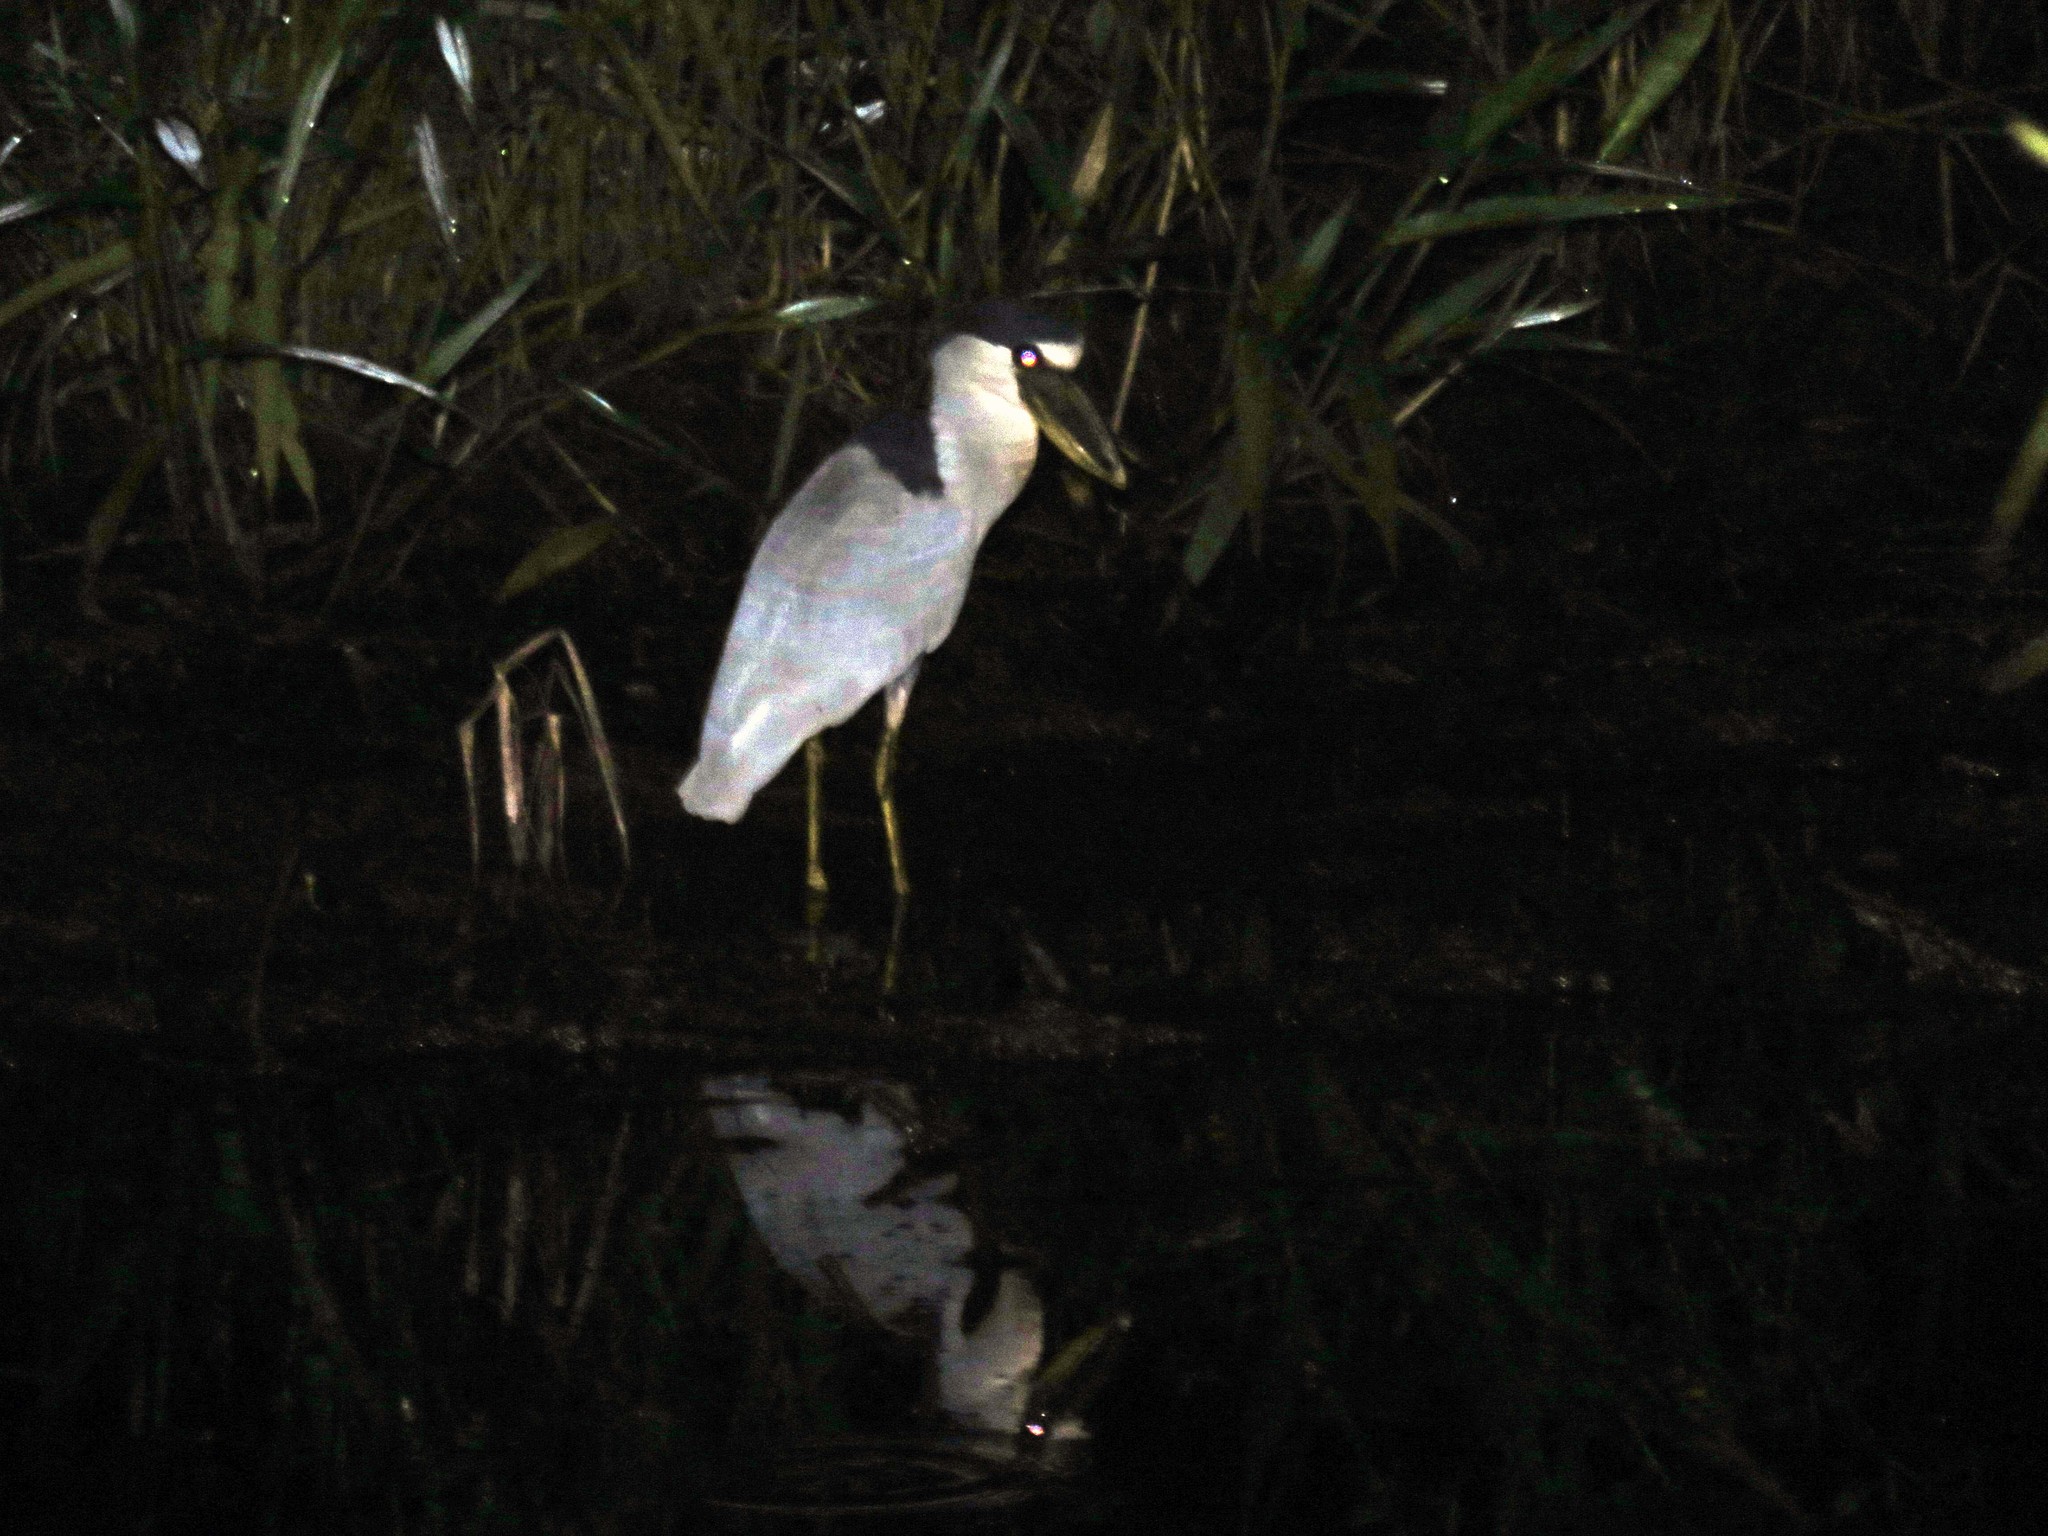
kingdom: Animalia
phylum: Chordata
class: Aves
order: Pelecaniformes
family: Ardeidae
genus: Cochlearius
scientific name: Cochlearius cochlearius
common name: Boat-billed heron
